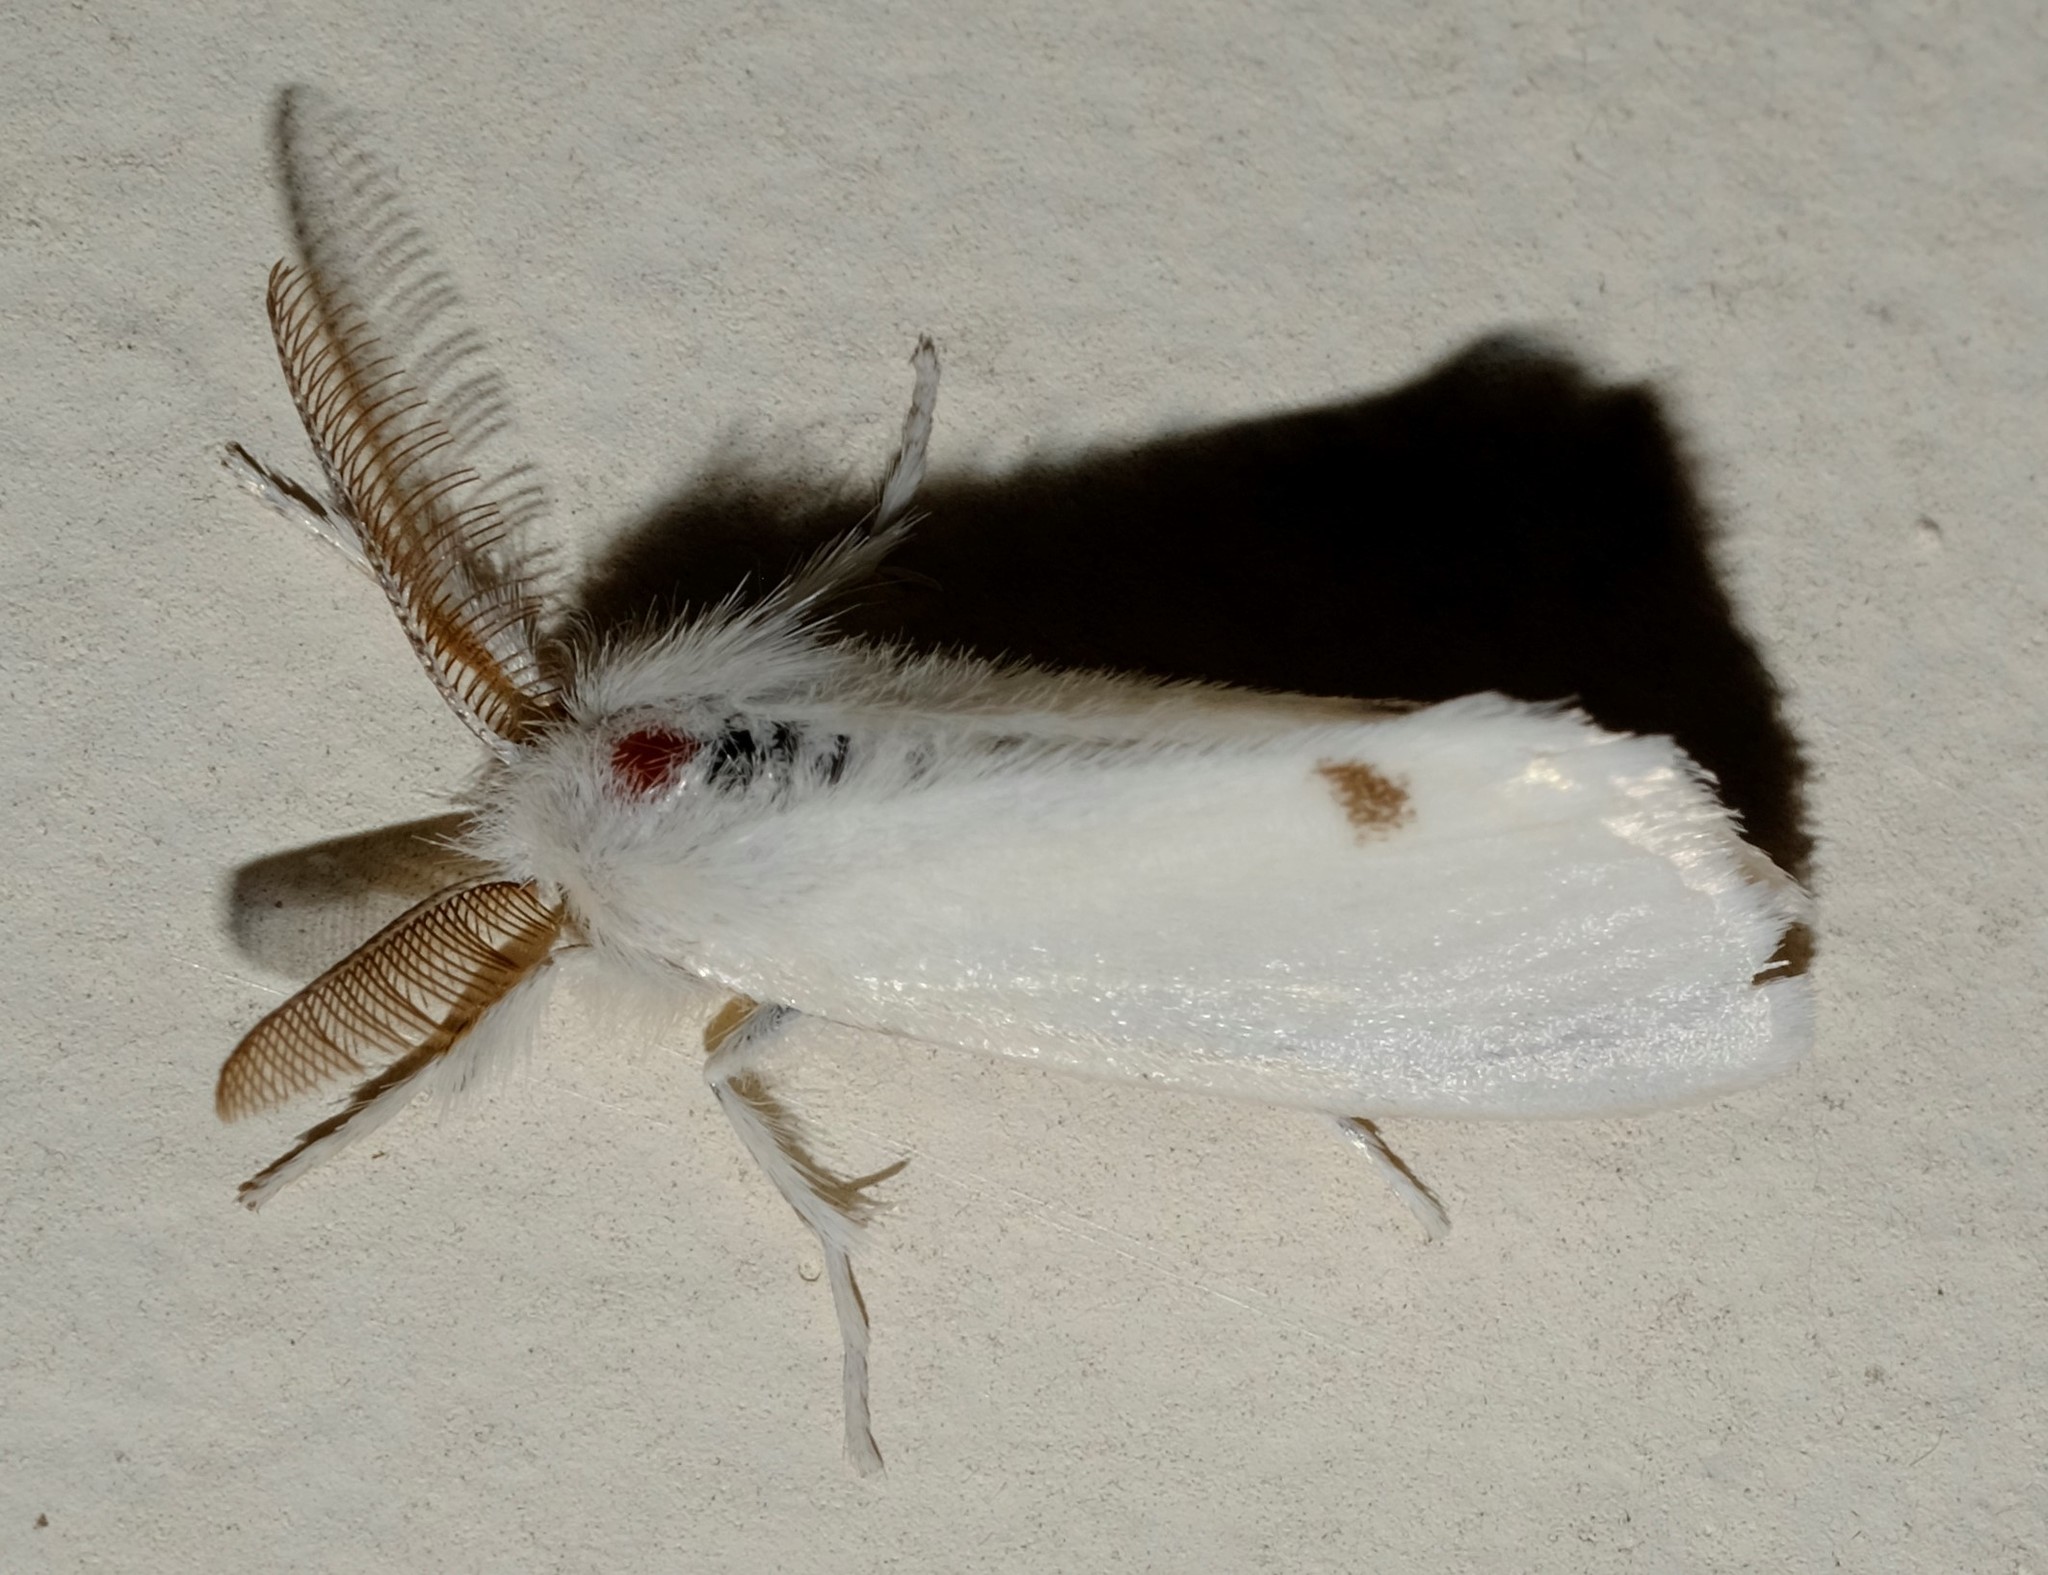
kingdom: Animalia
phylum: Arthropoda
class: Insecta
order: Lepidoptera
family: Erebidae
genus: Acyphas
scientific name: Acyphas semiochrea
